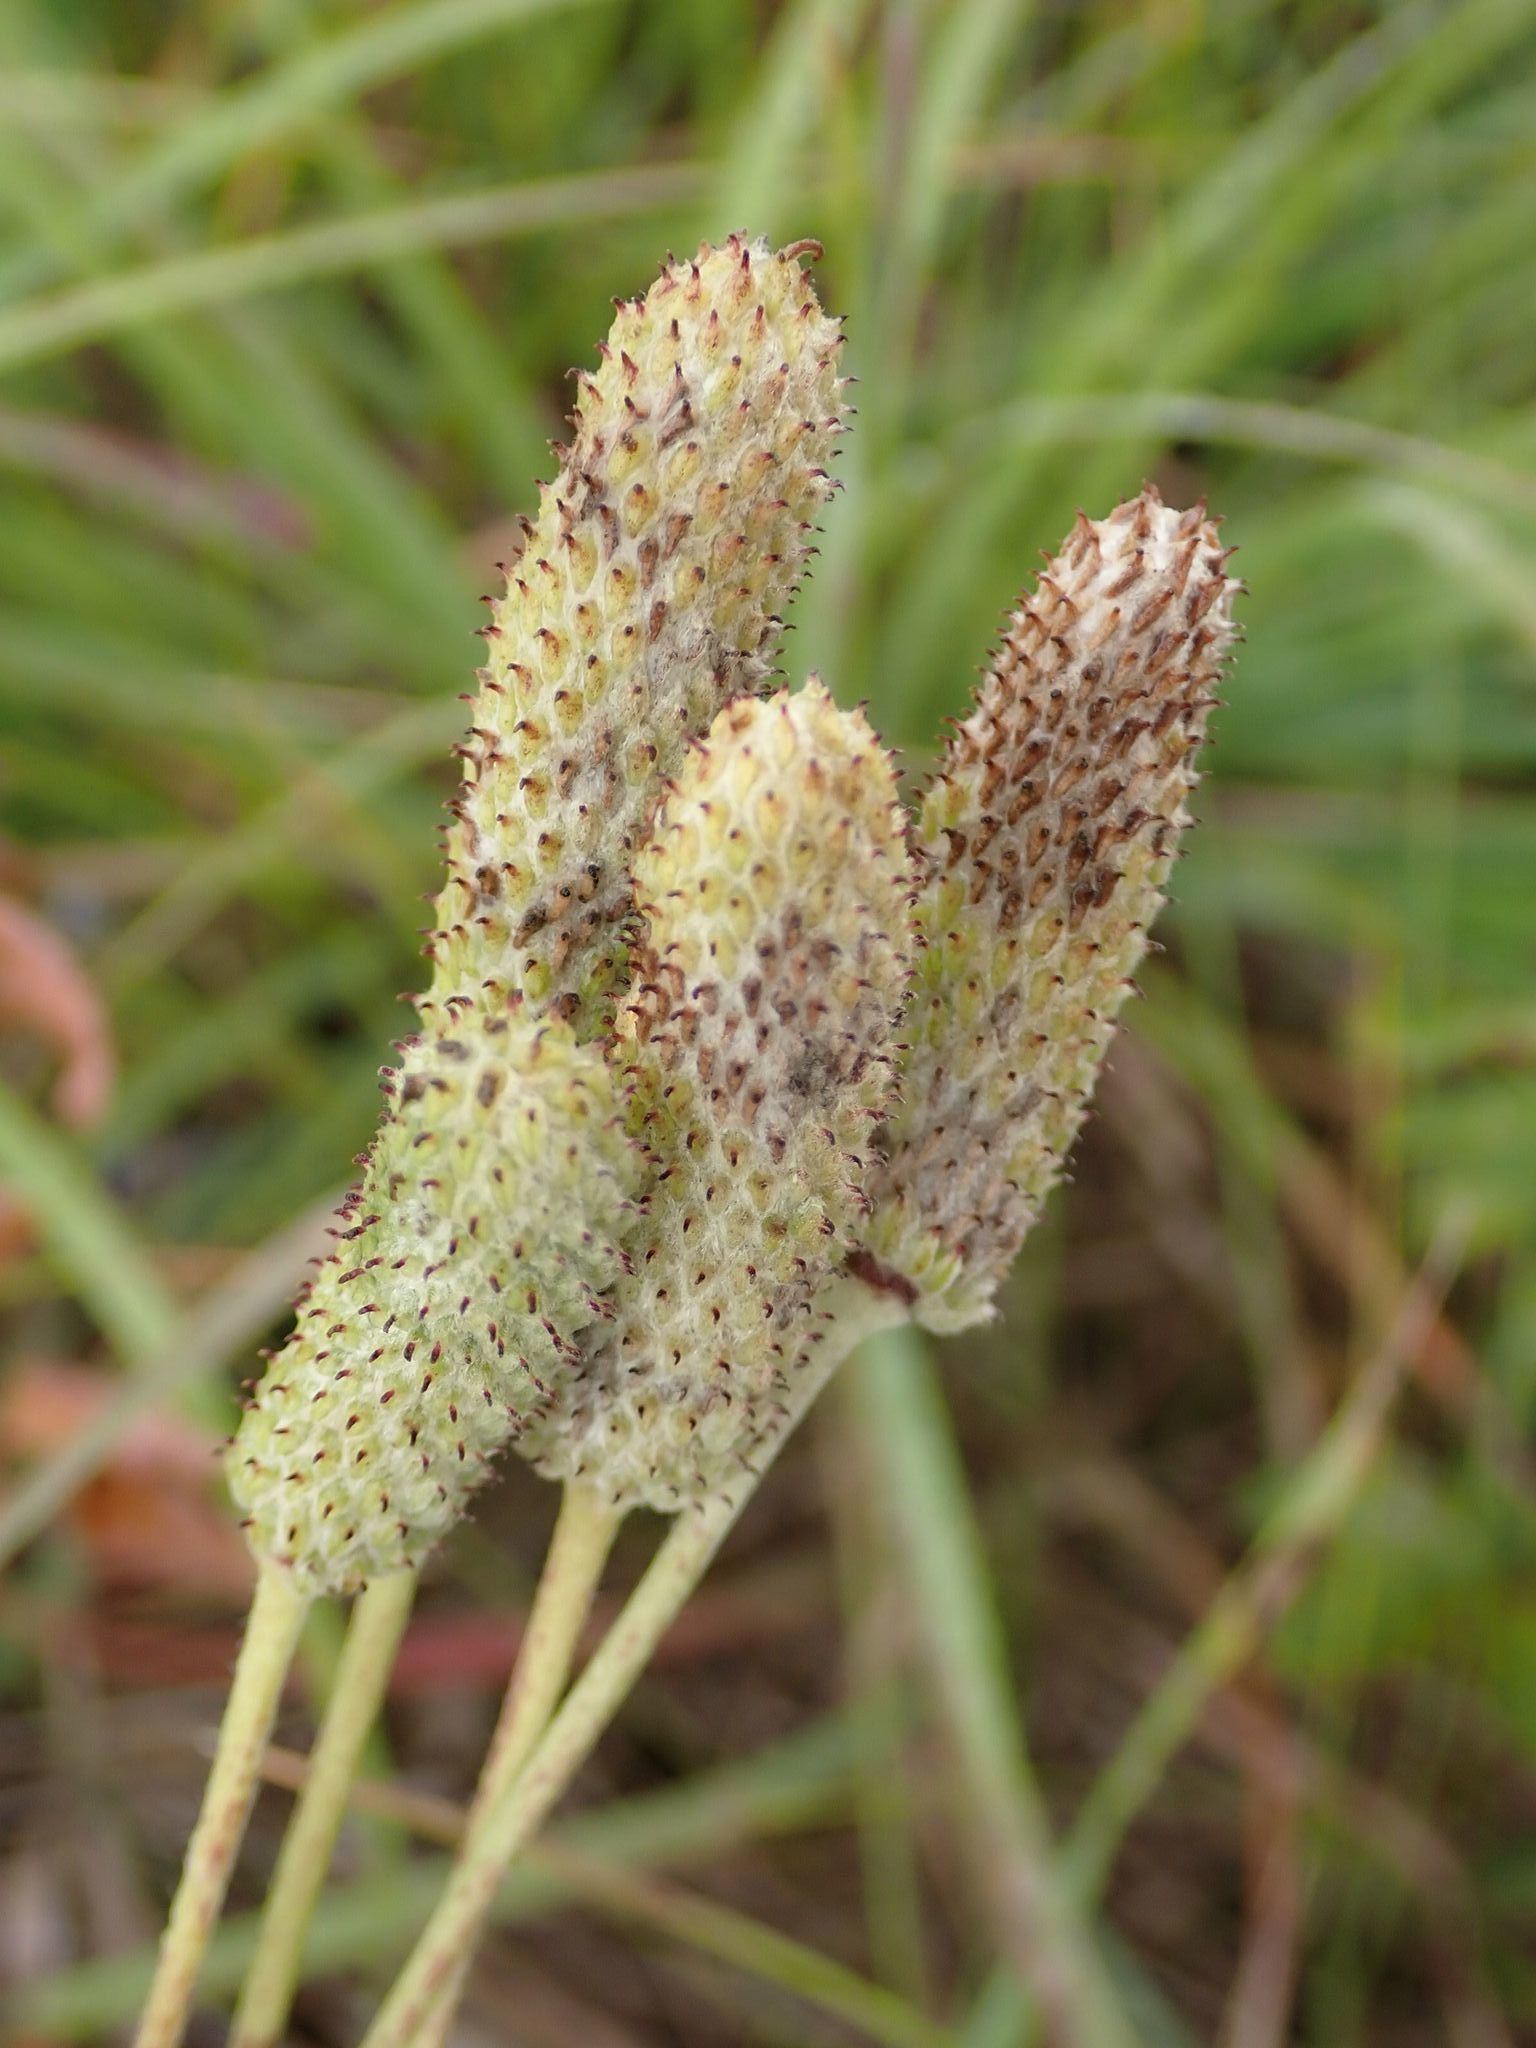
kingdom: Plantae
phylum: Tracheophyta
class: Magnoliopsida
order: Ranunculales
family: Ranunculaceae
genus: Anemone
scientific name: Anemone cylindrica
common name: Candle anemone
